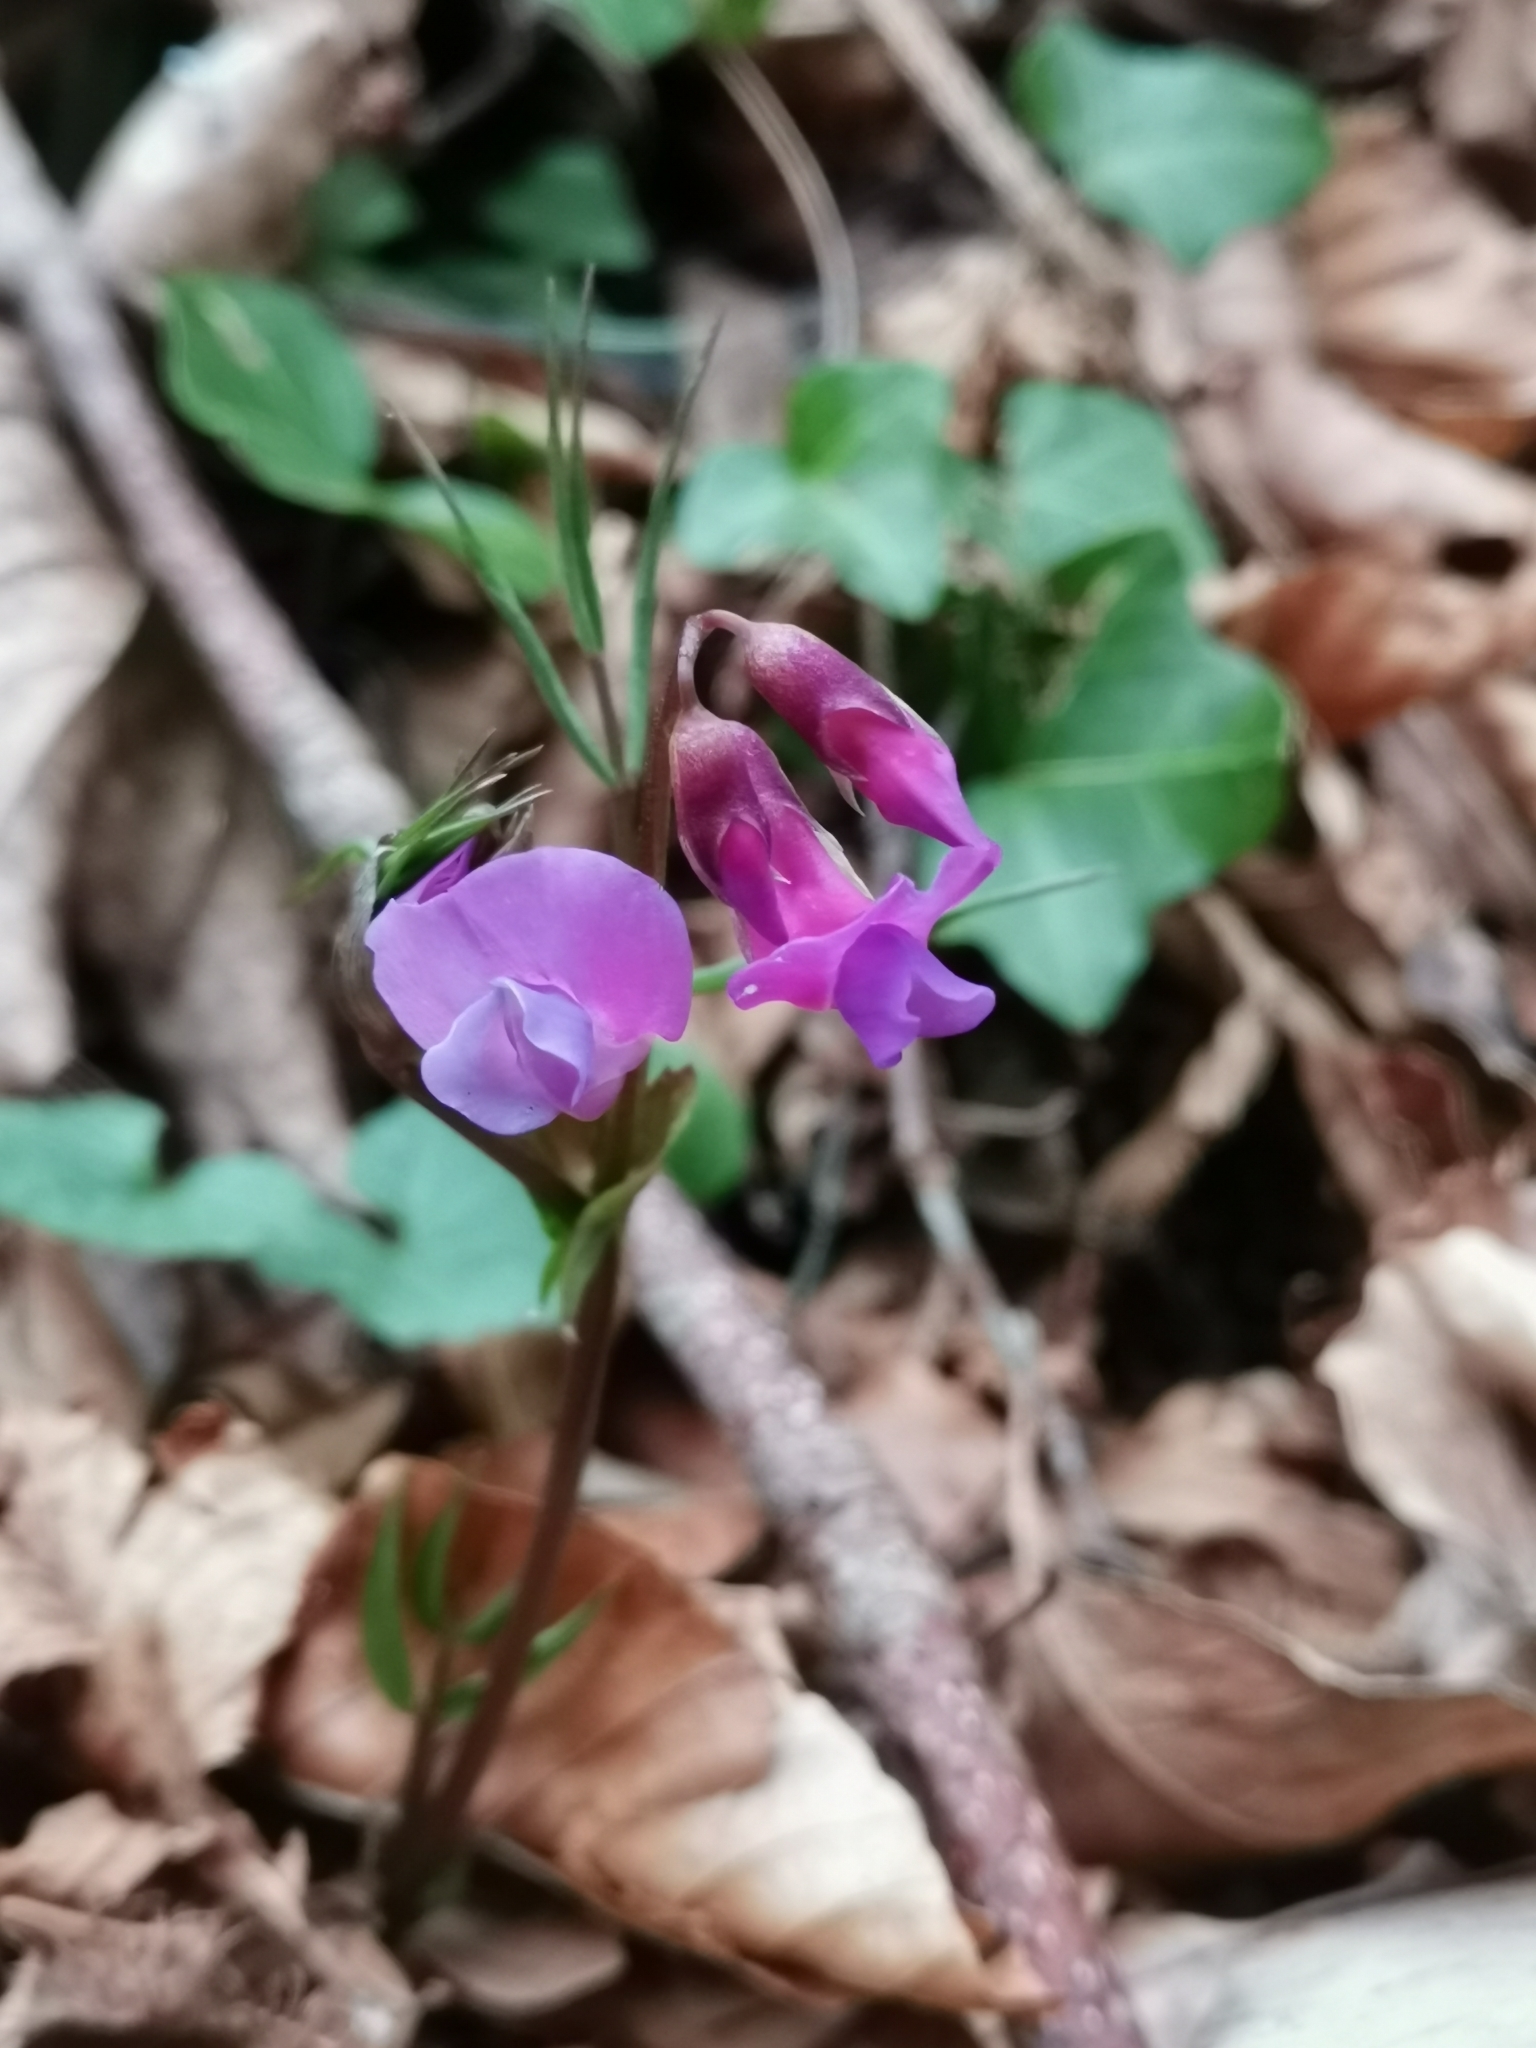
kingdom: Plantae
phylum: Tracheophyta
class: Magnoliopsida
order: Fabales
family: Fabaceae
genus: Lathyrus
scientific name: Lathyrus vernus
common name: Spring pea
